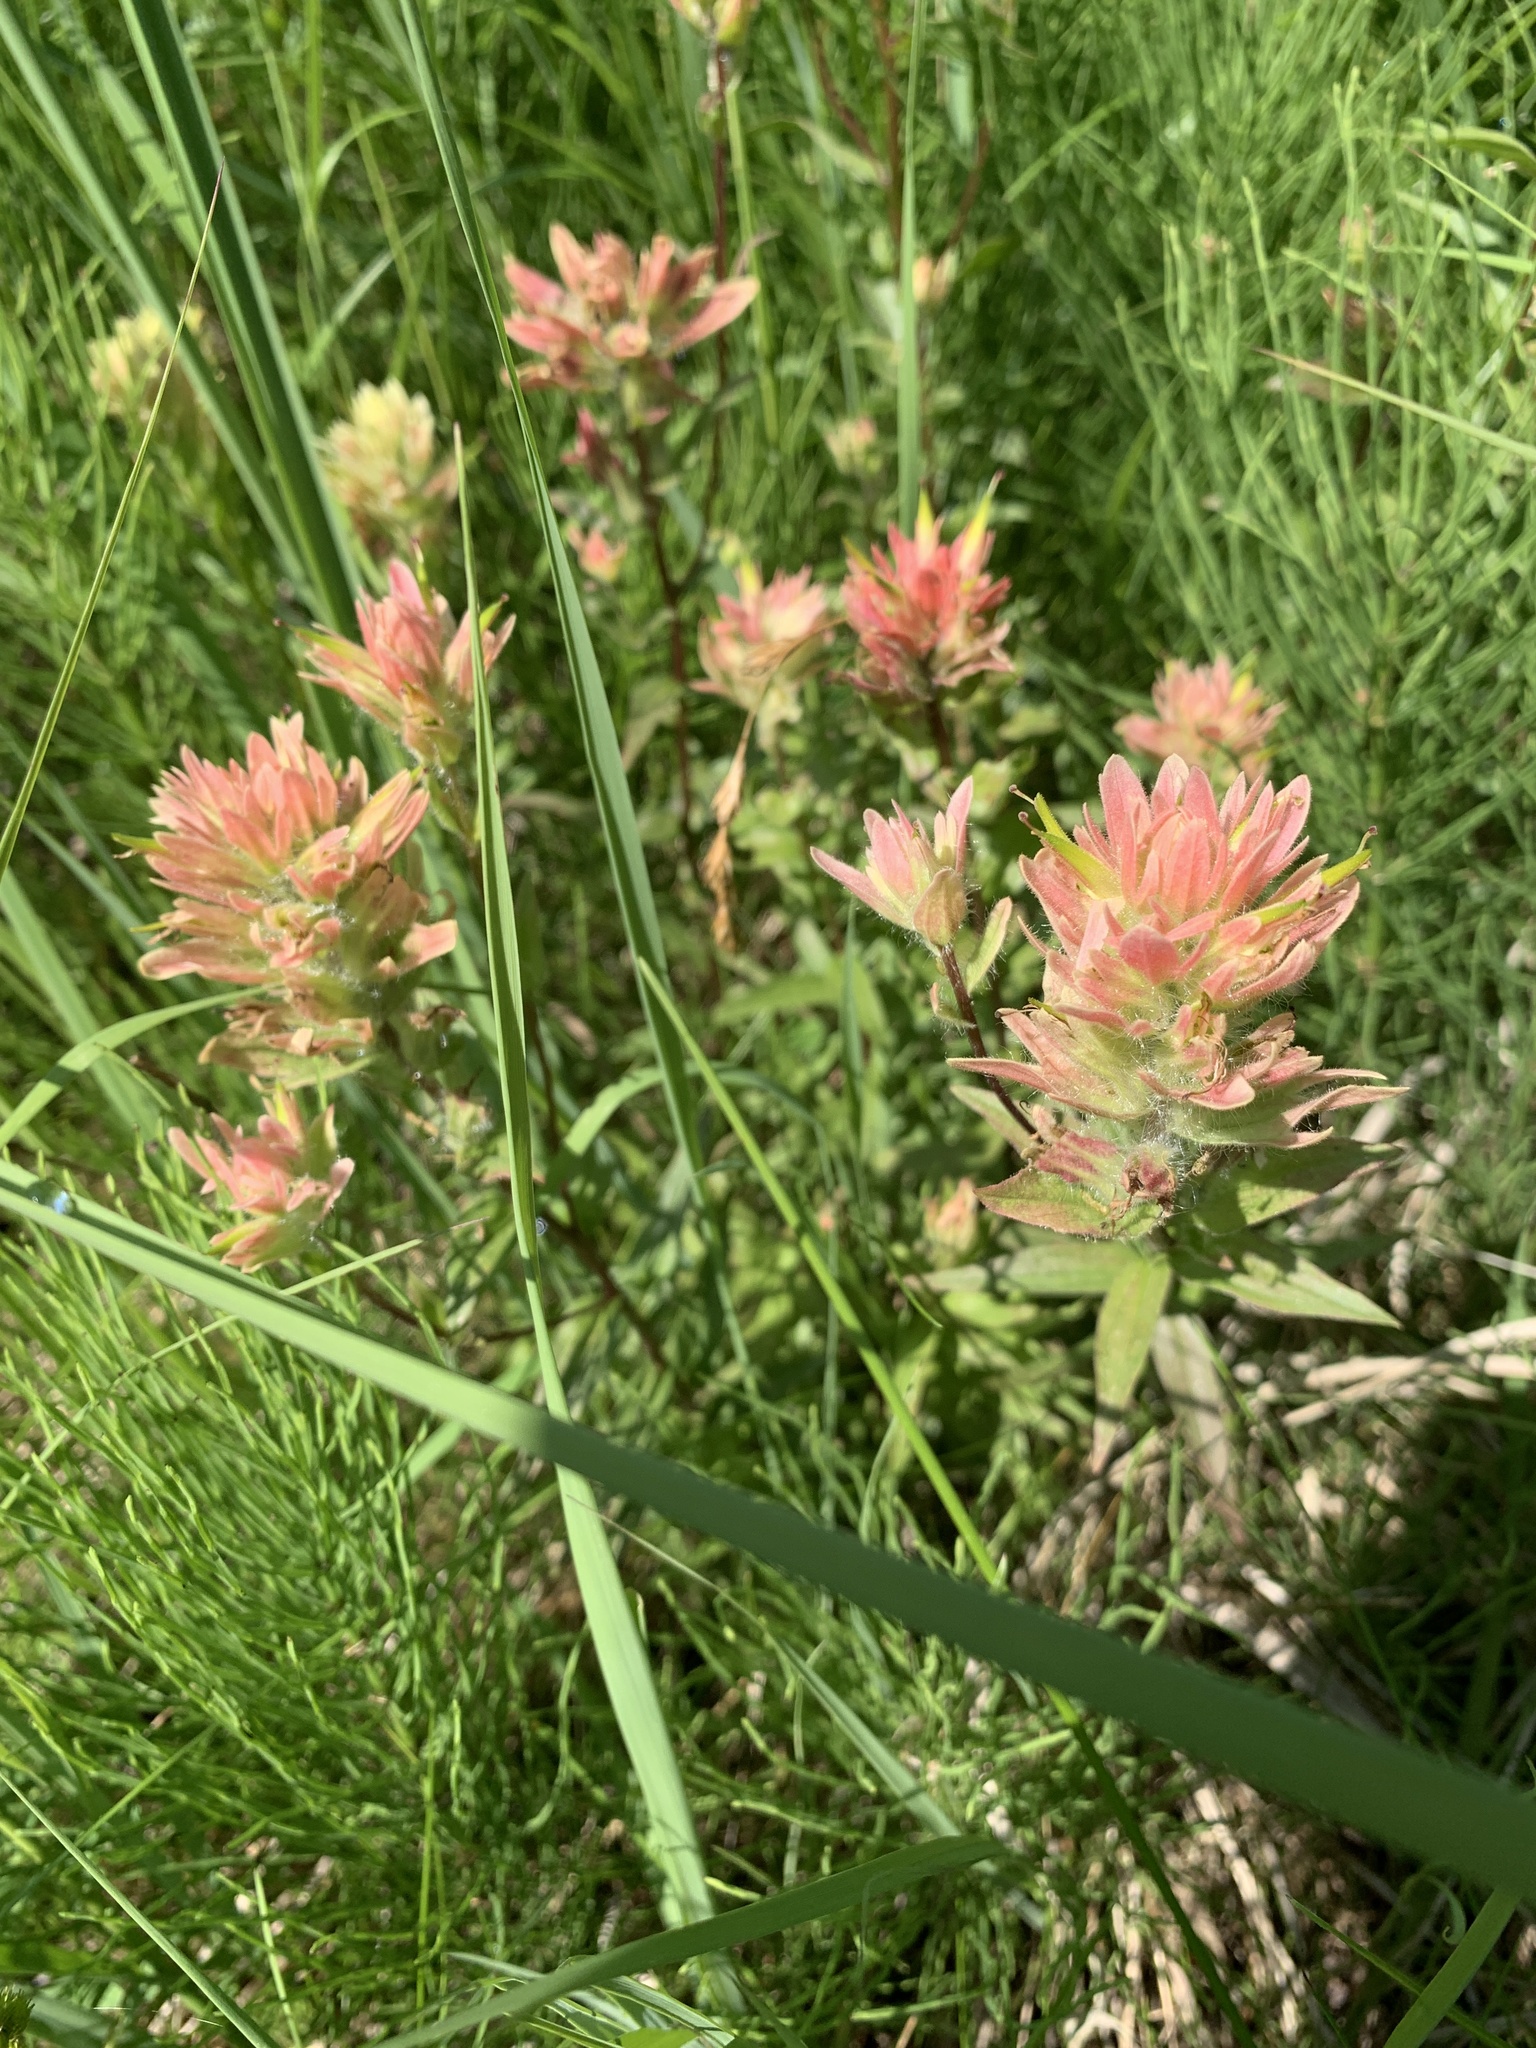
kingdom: Plantae
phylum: Tracheophyta
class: Magnoliopsida
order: Lamiales
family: Orobanchaceae
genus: Castilleja
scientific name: Castilleja miniata
